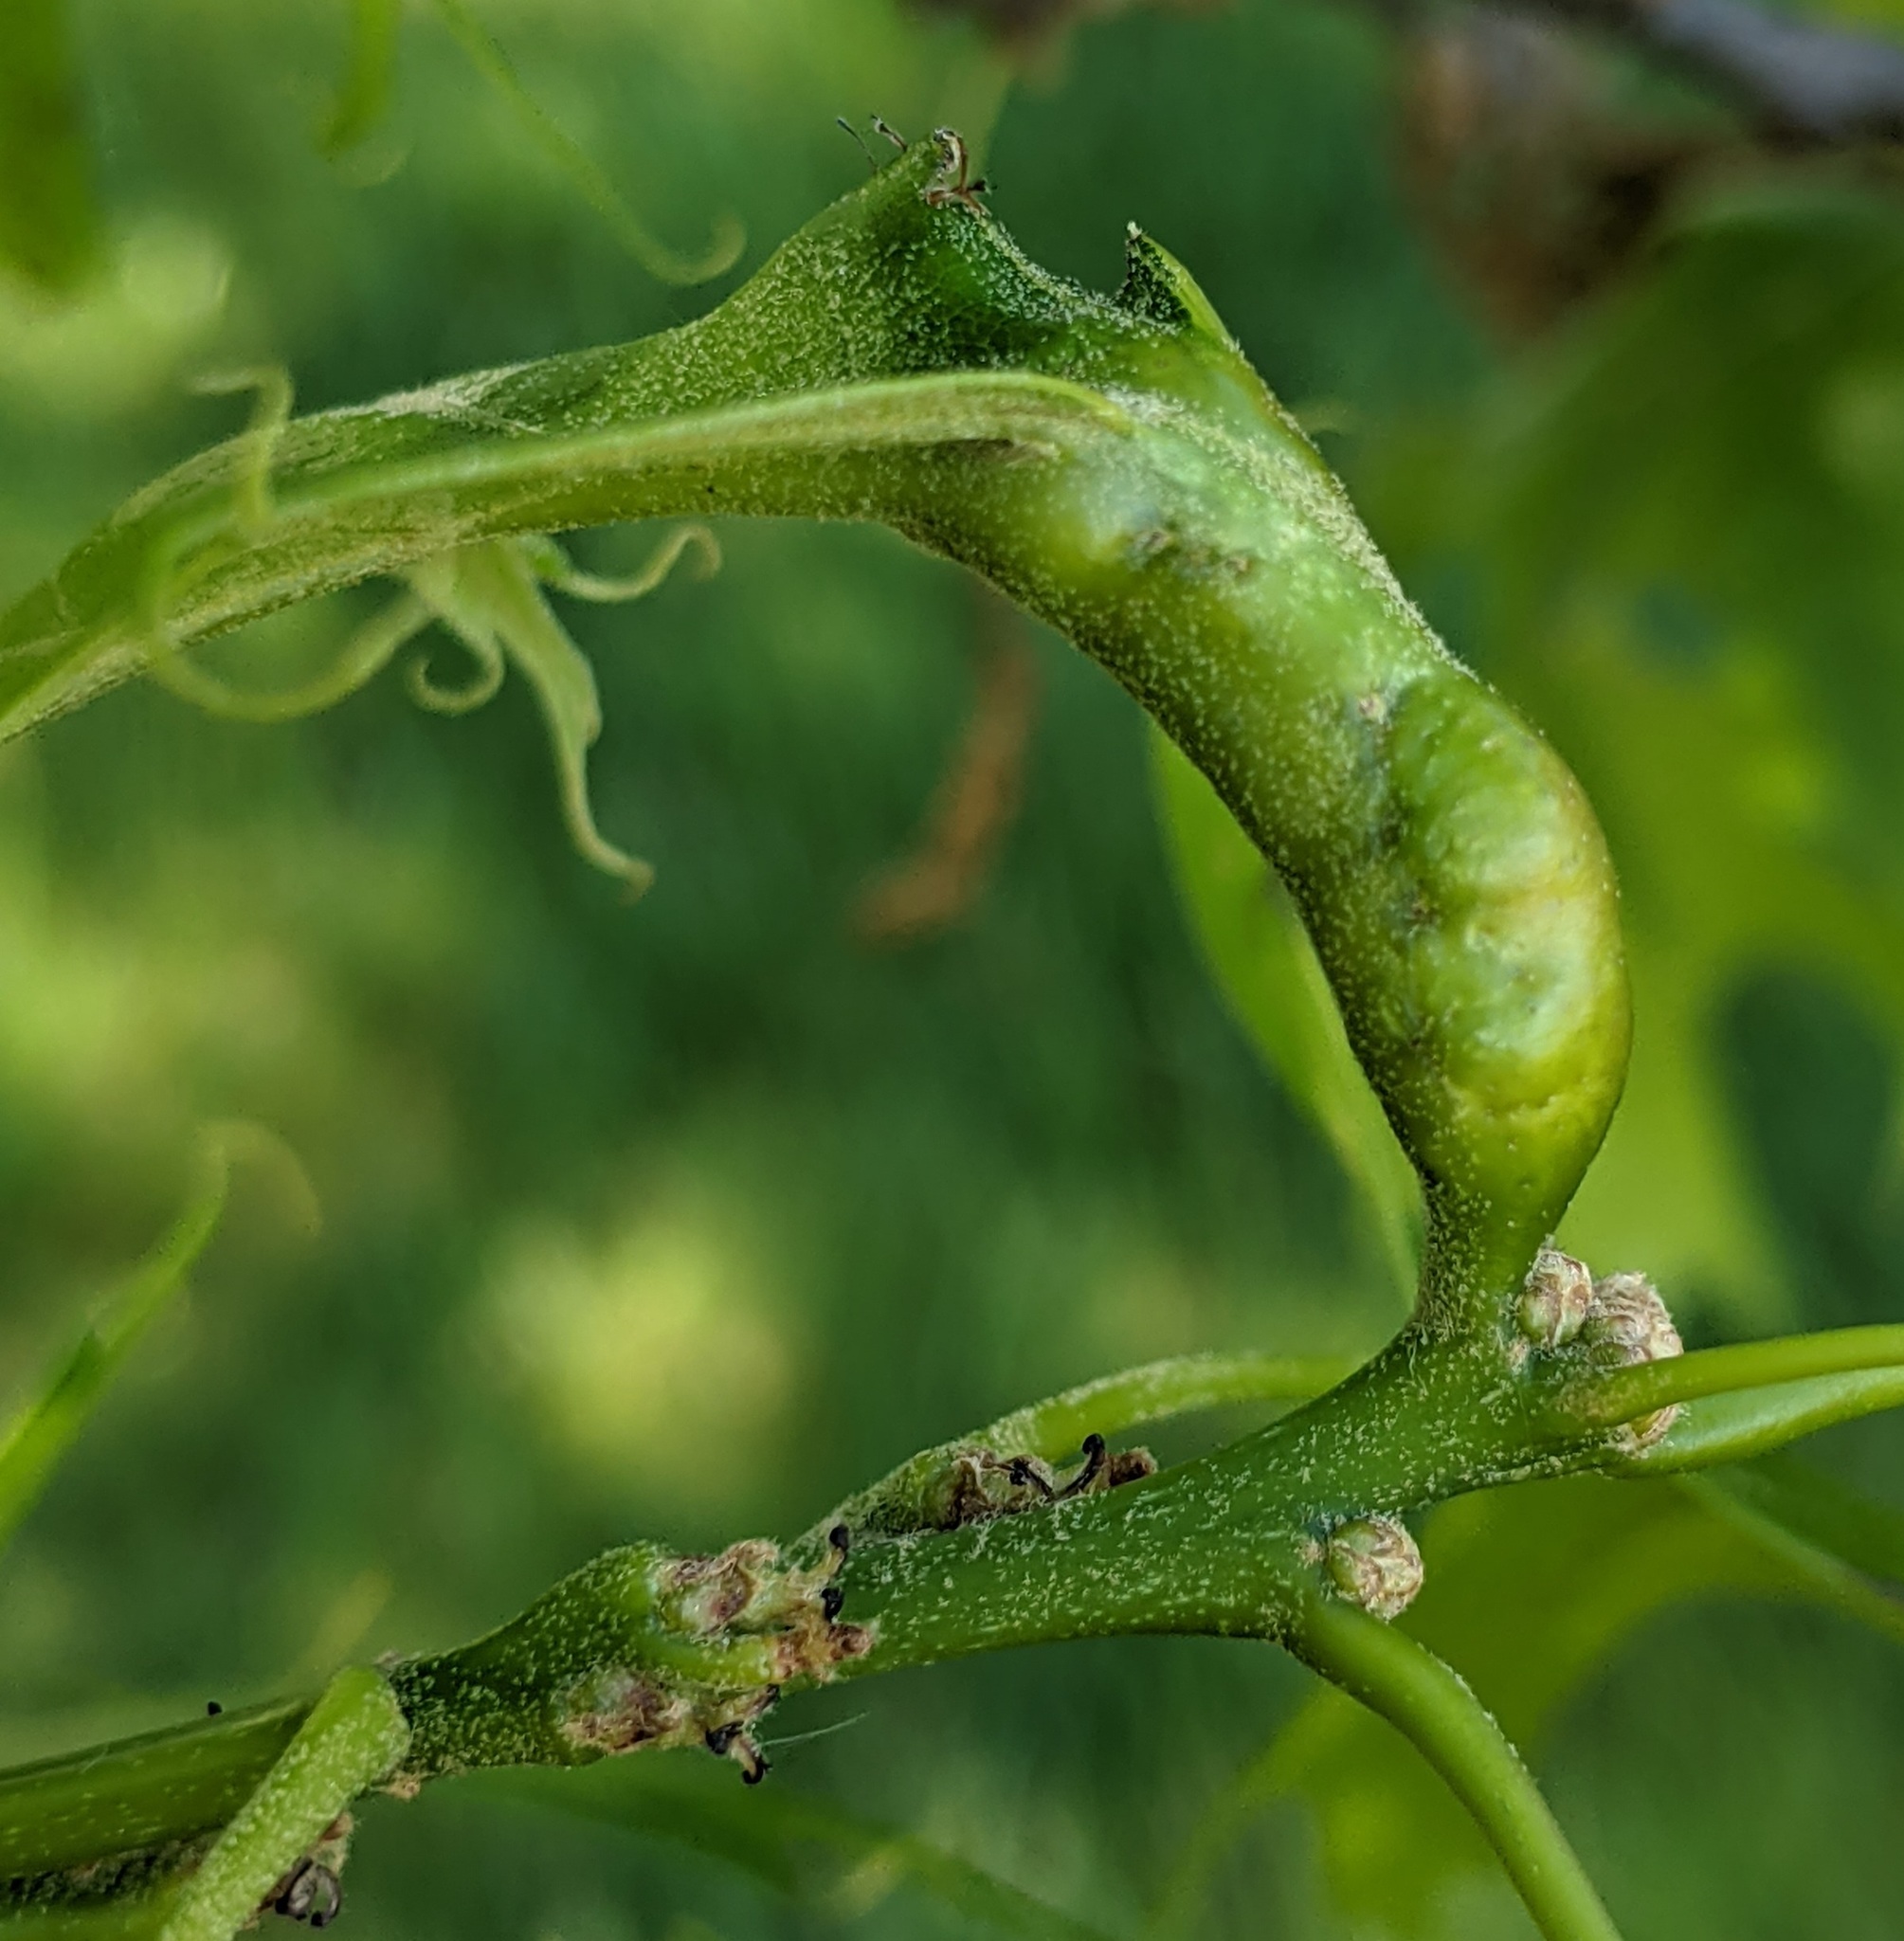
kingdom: Animalia
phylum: Arthropoda
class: Insecta
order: Hymenoptera
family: Cynipidae
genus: Melikaiella
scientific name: Melikaiella tumifica
